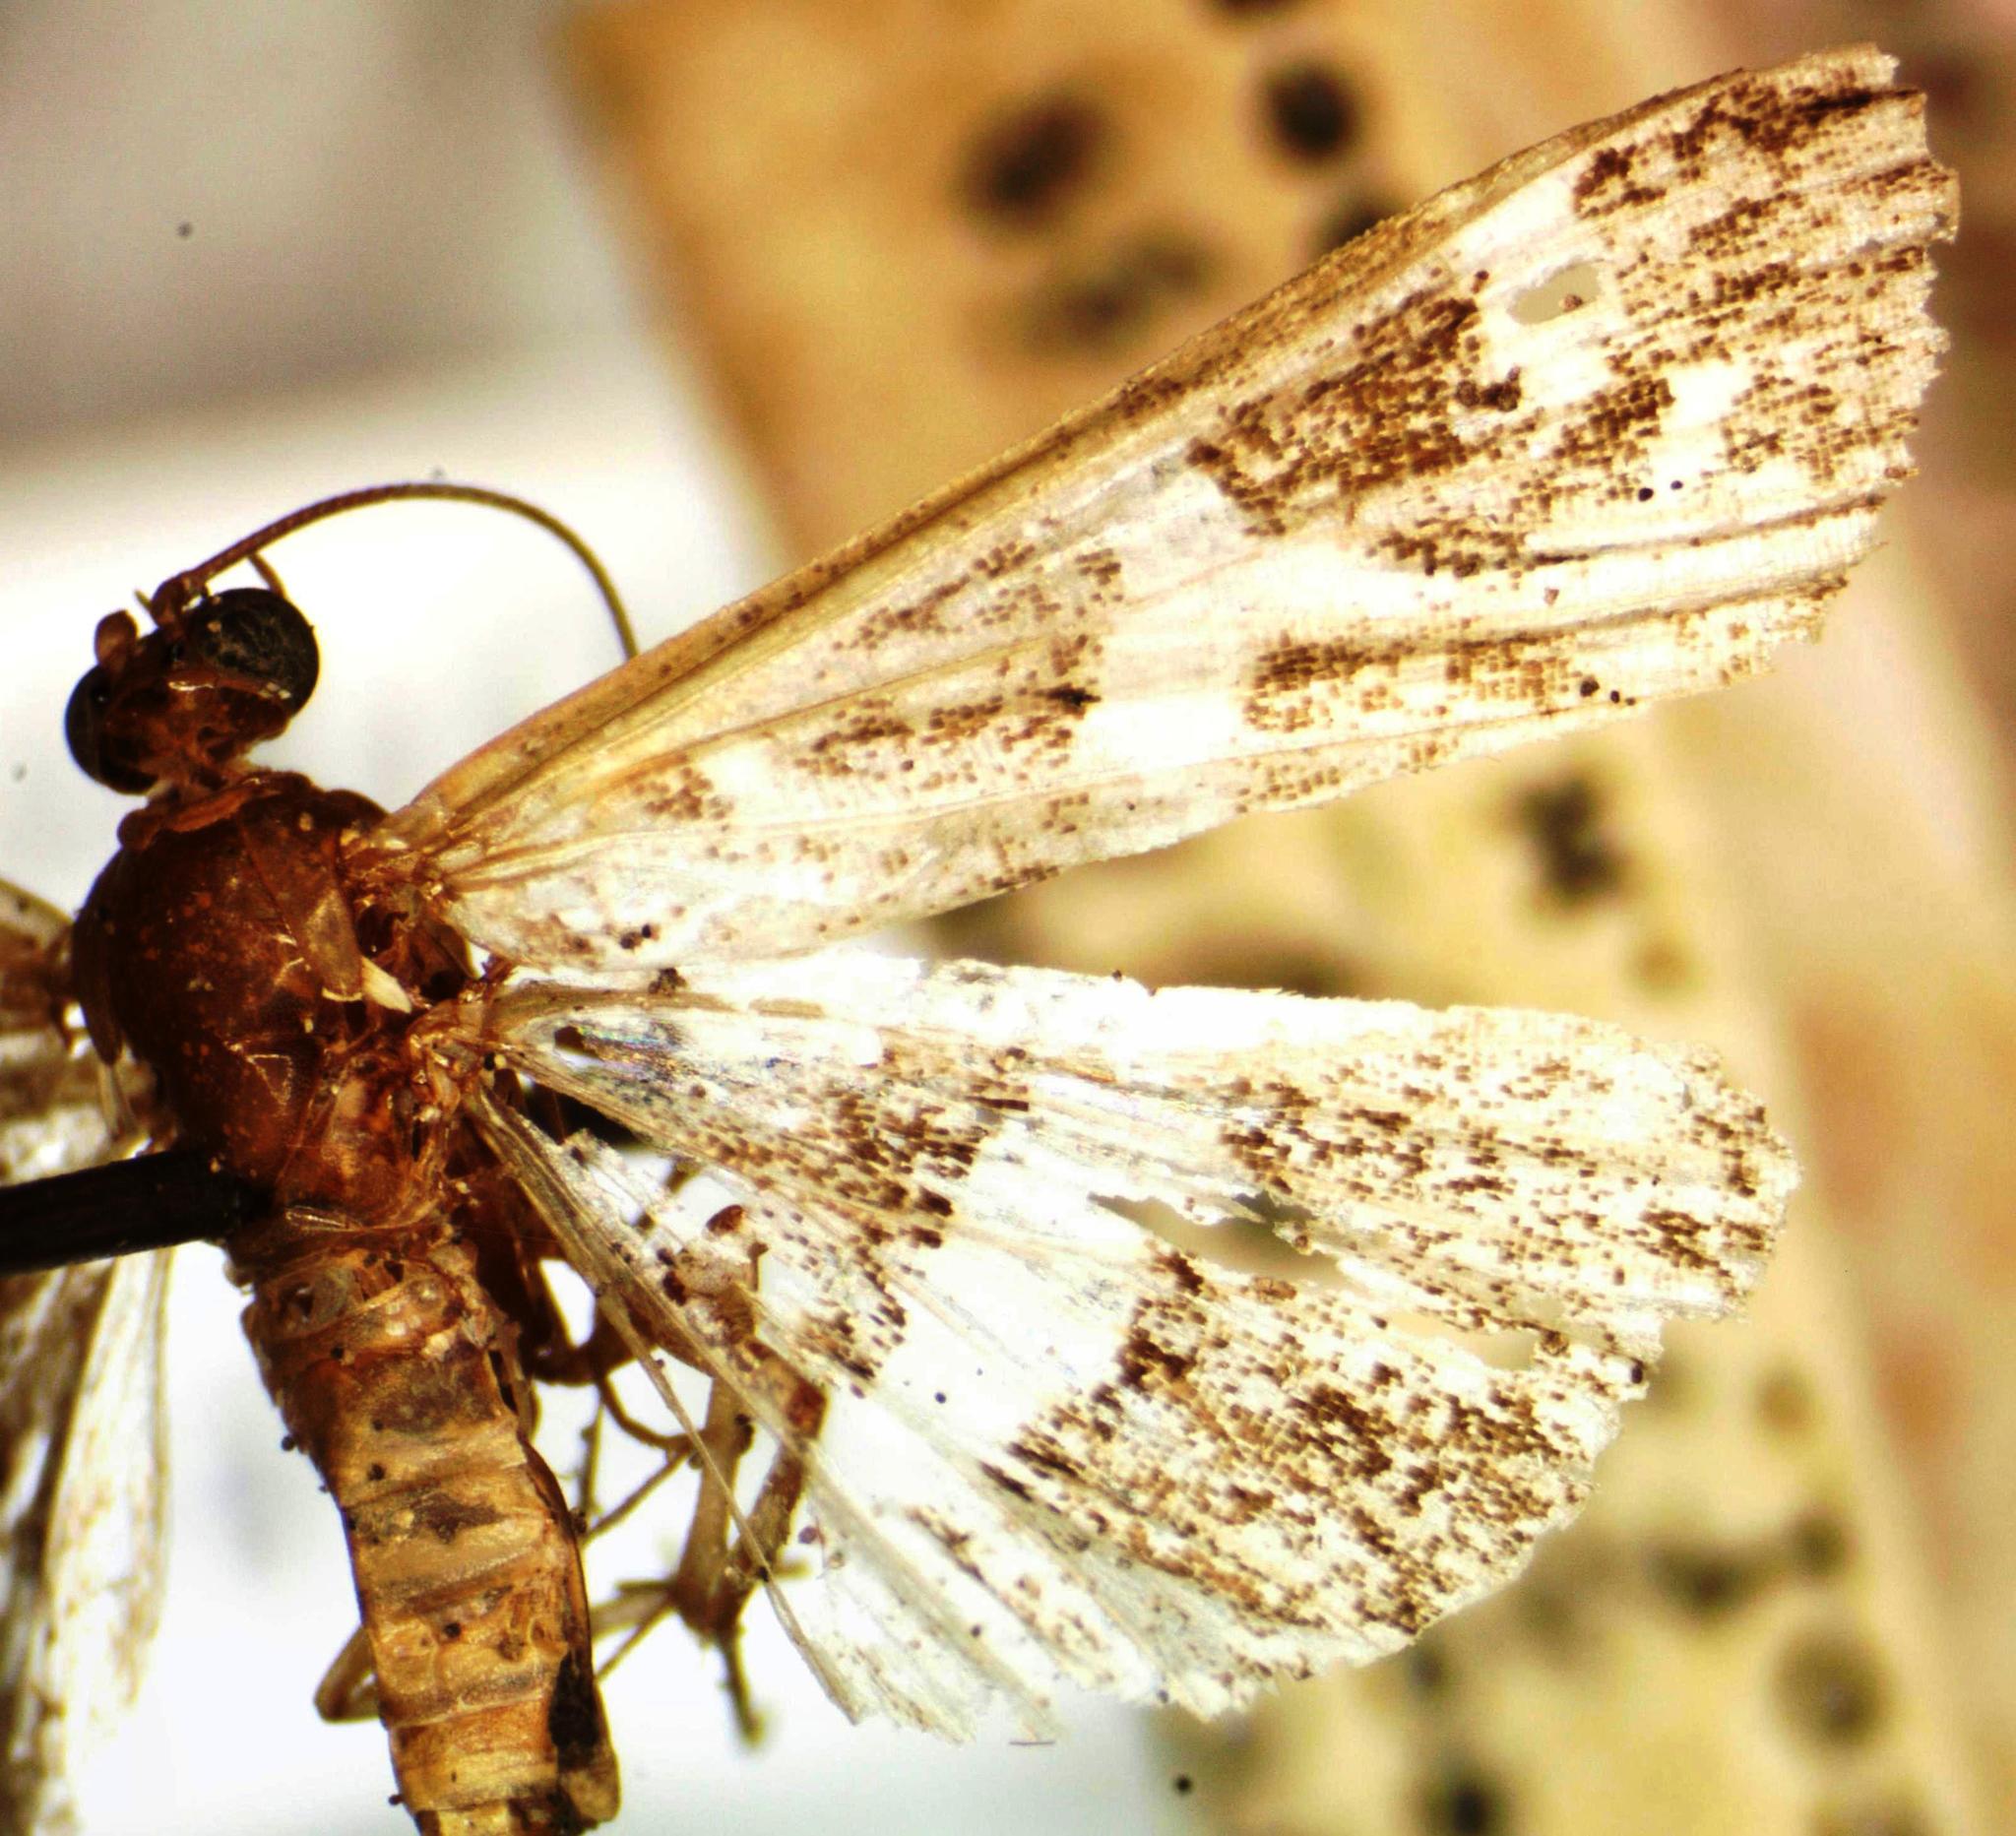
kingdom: Animalia
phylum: Arthropoda
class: Insecta
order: Lepidoptera
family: Crambidae
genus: Spoladea
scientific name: Spoladea recurvalis
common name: Beet webworm moth
